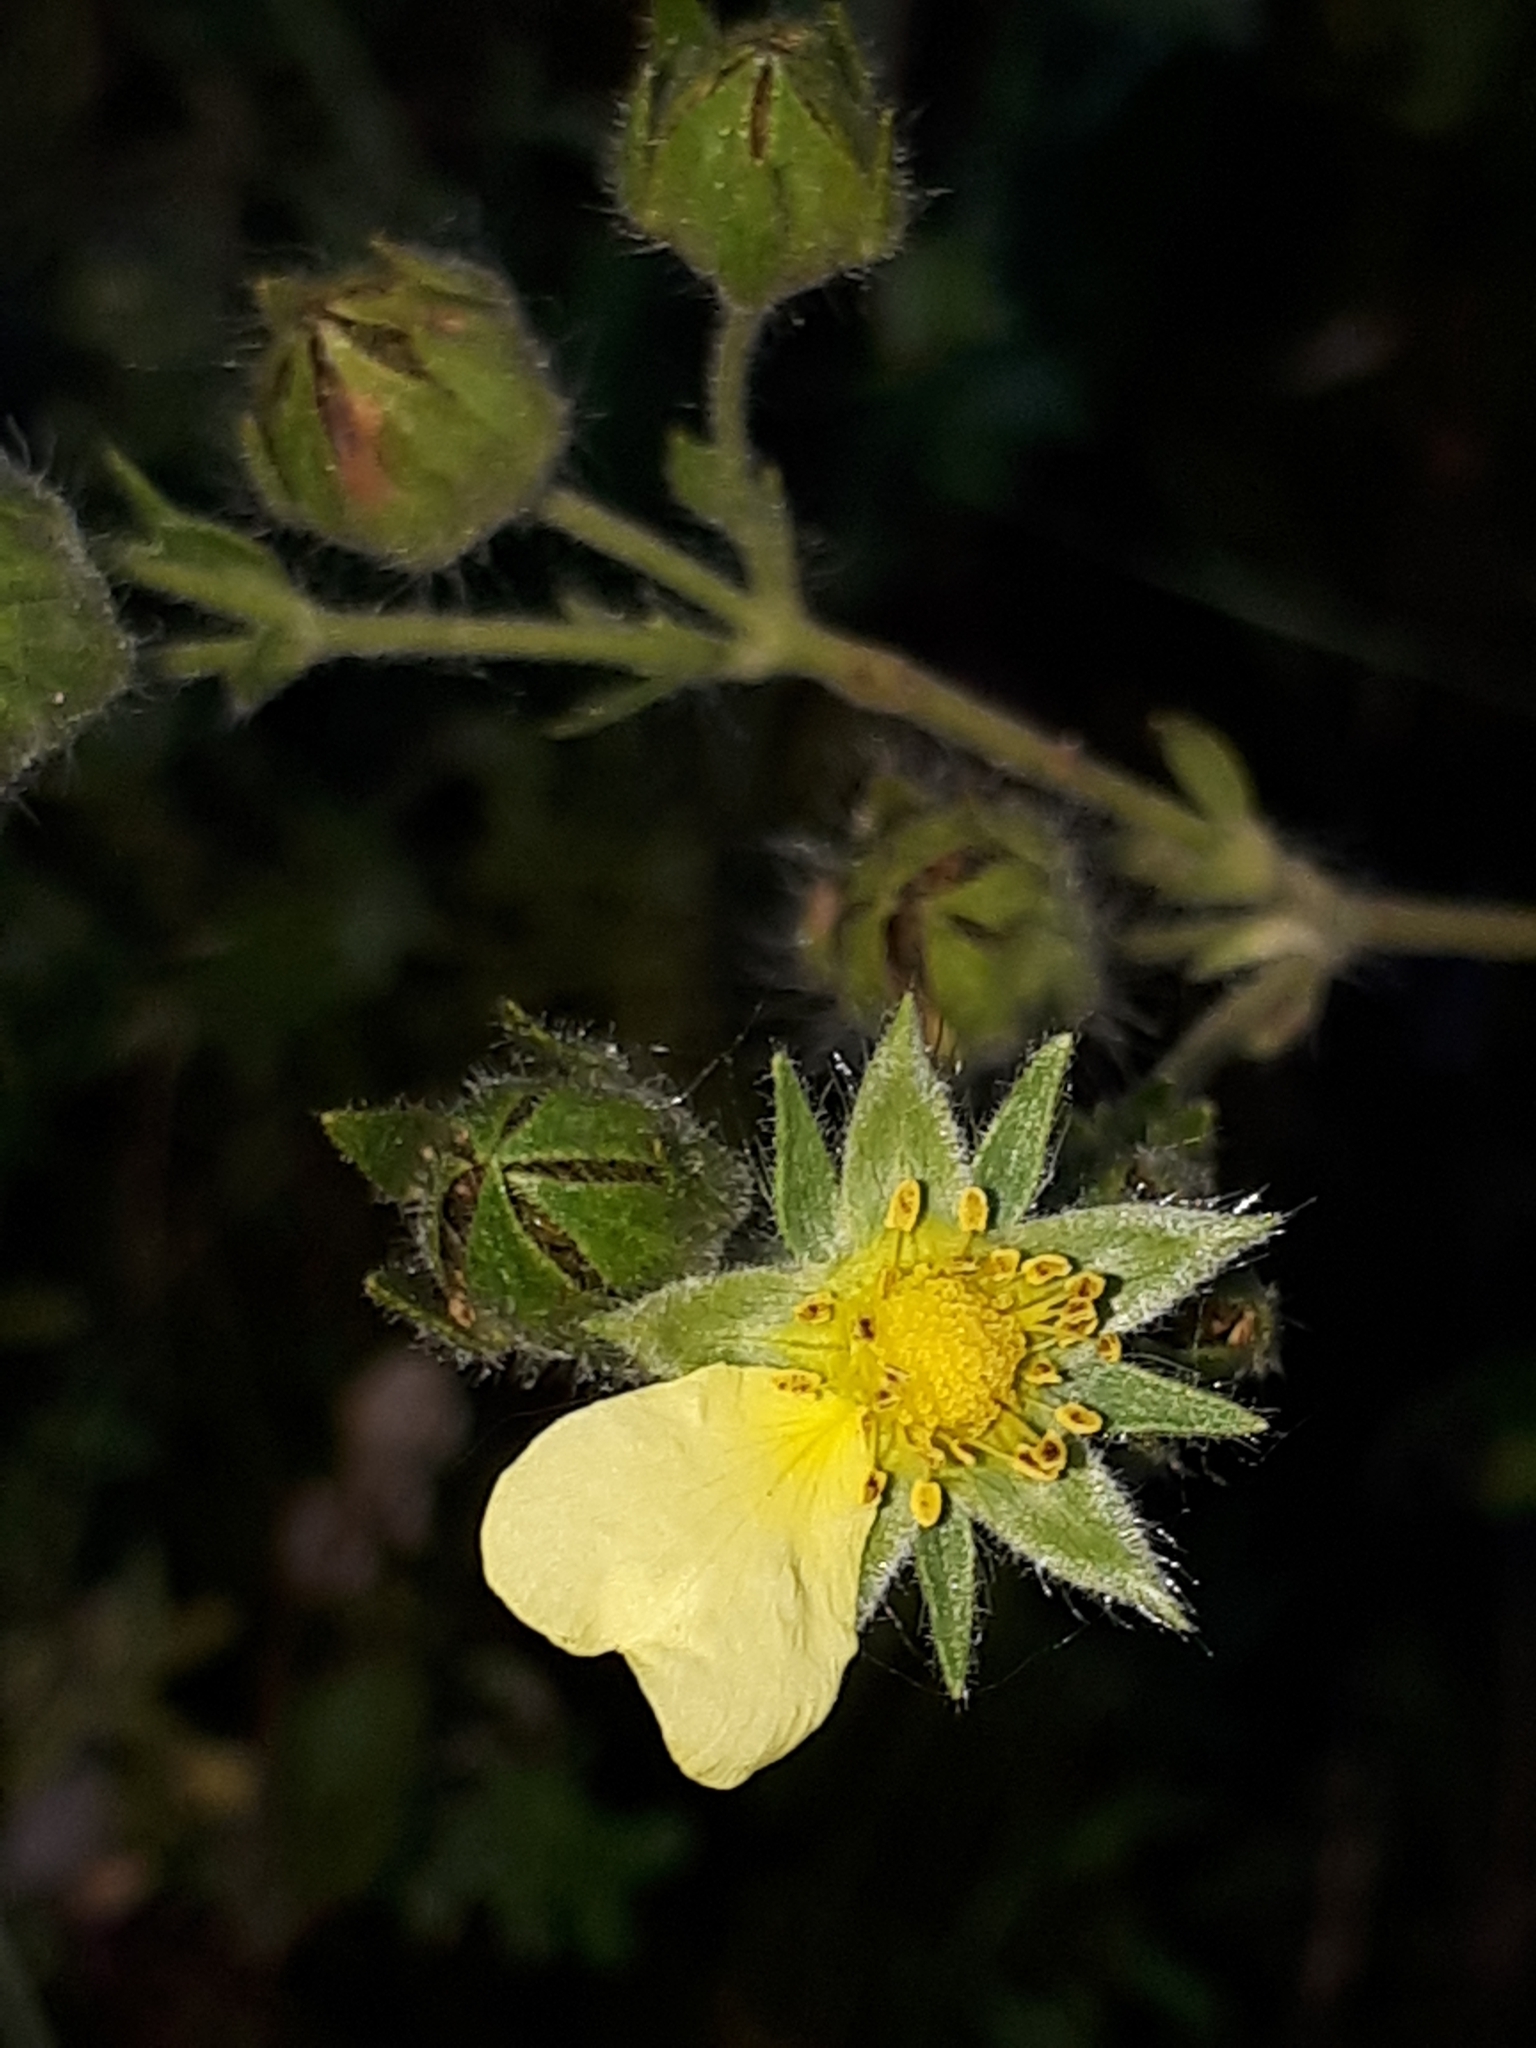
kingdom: Plantae
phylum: Tracheophyta
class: Magnoliopsida
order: Rosales
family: Rosaceae
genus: Potentilla
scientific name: Potentilla recta
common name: Sulphur cinquefoil
